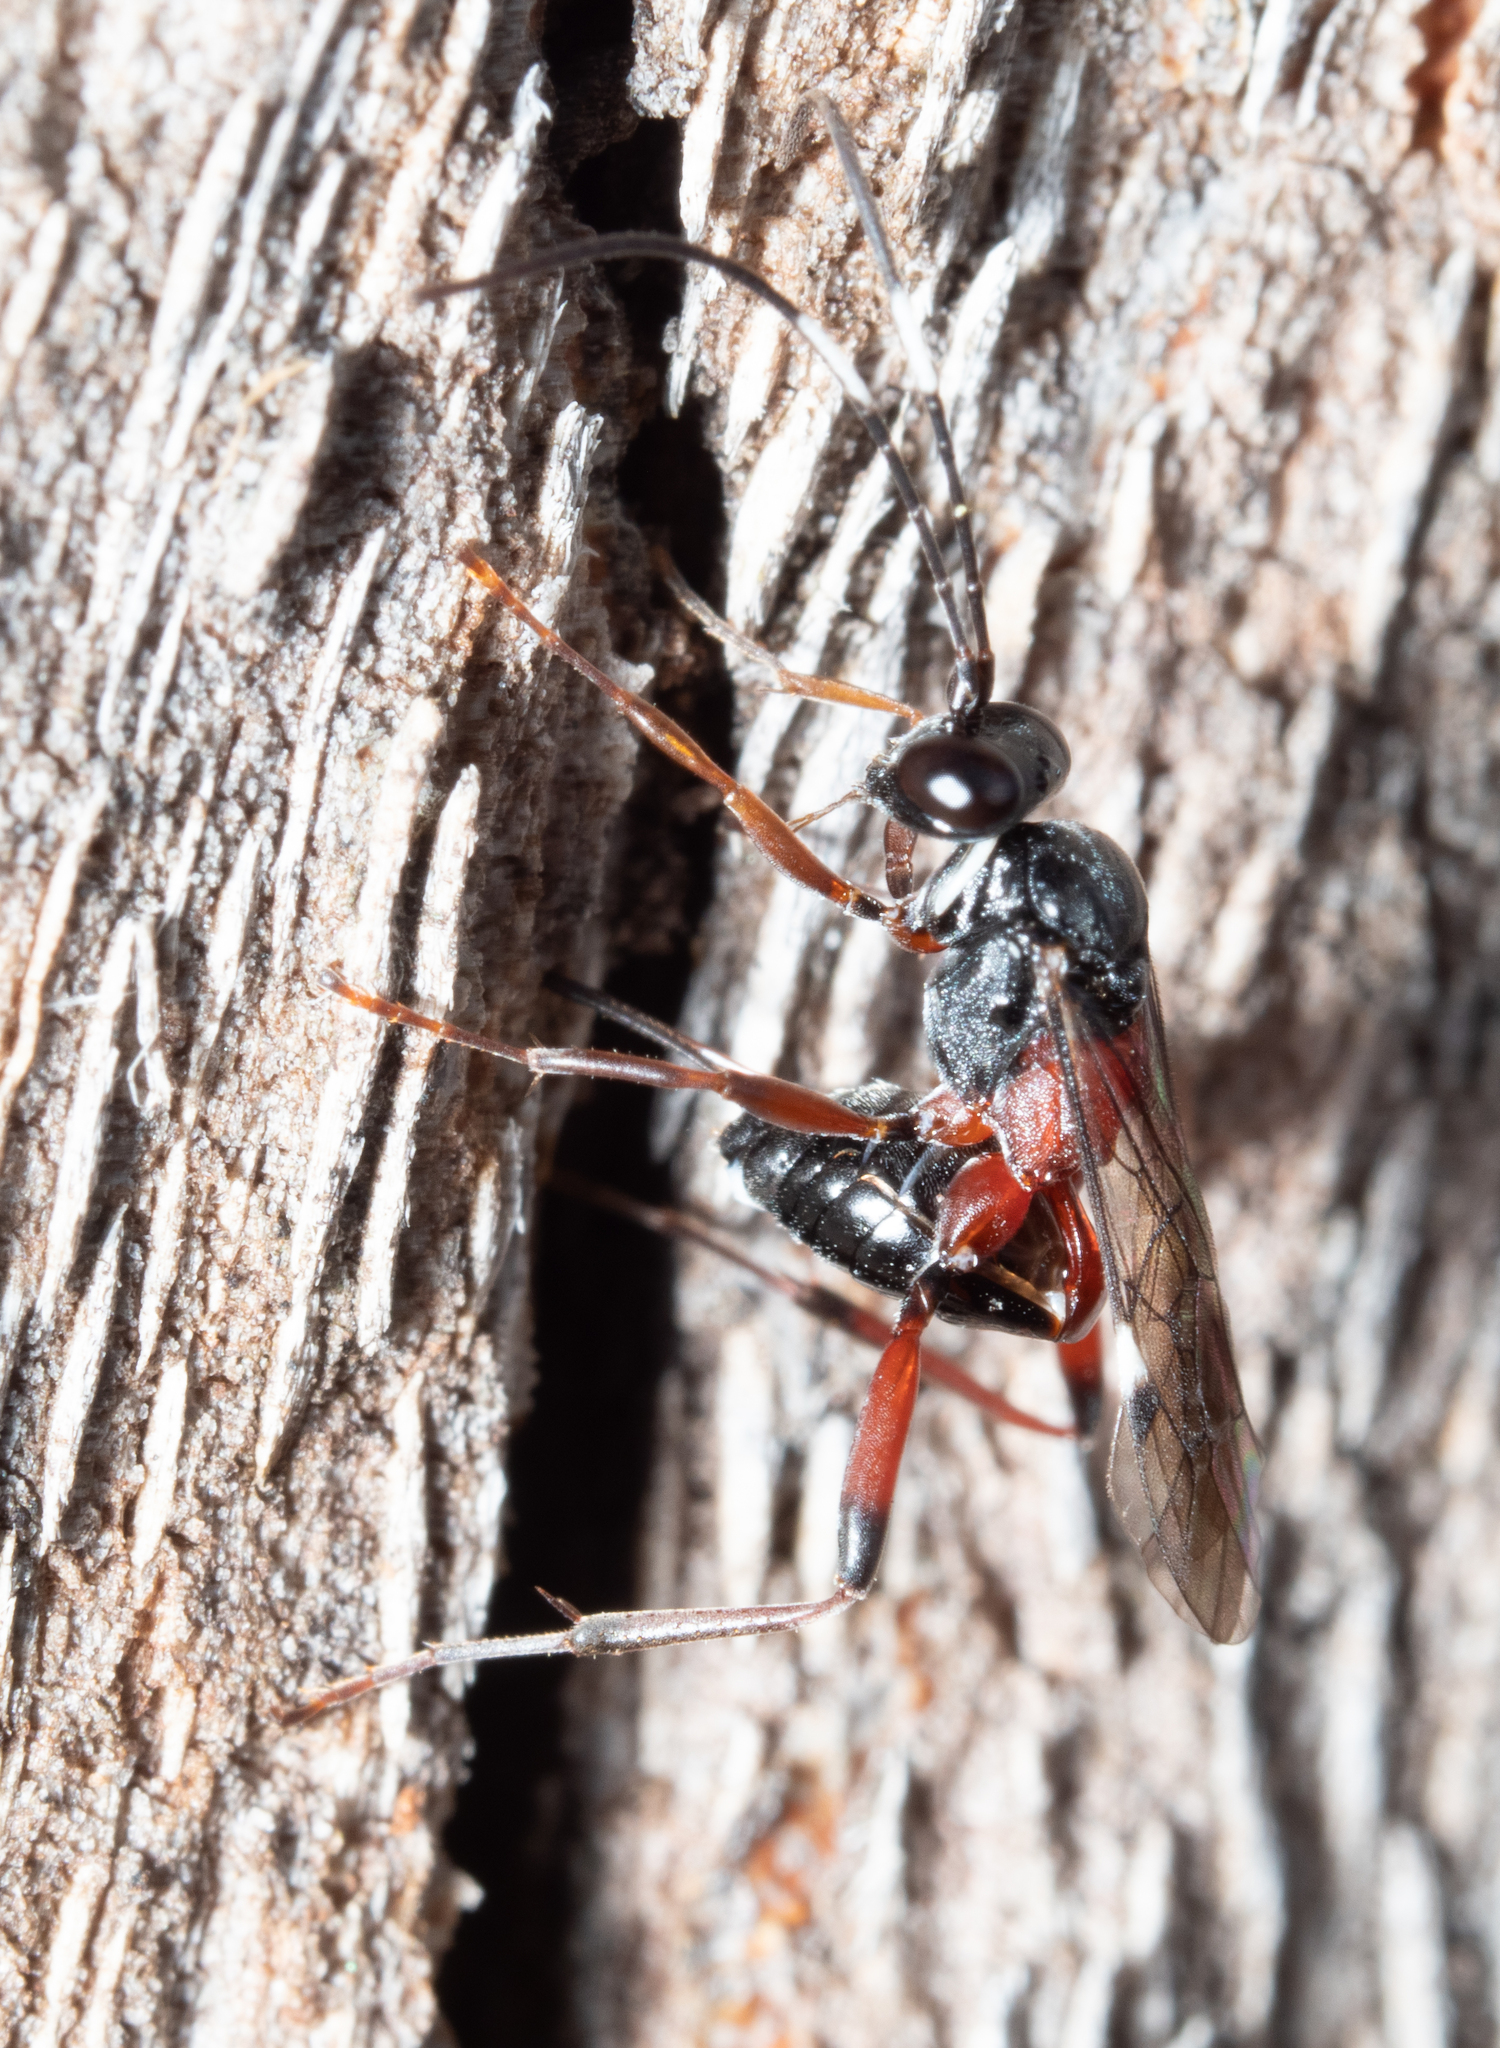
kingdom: Animalia
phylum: Arthropoda
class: Insecta
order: Hymenoptera
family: Ichneumonidae
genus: Anacis
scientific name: Anacis
